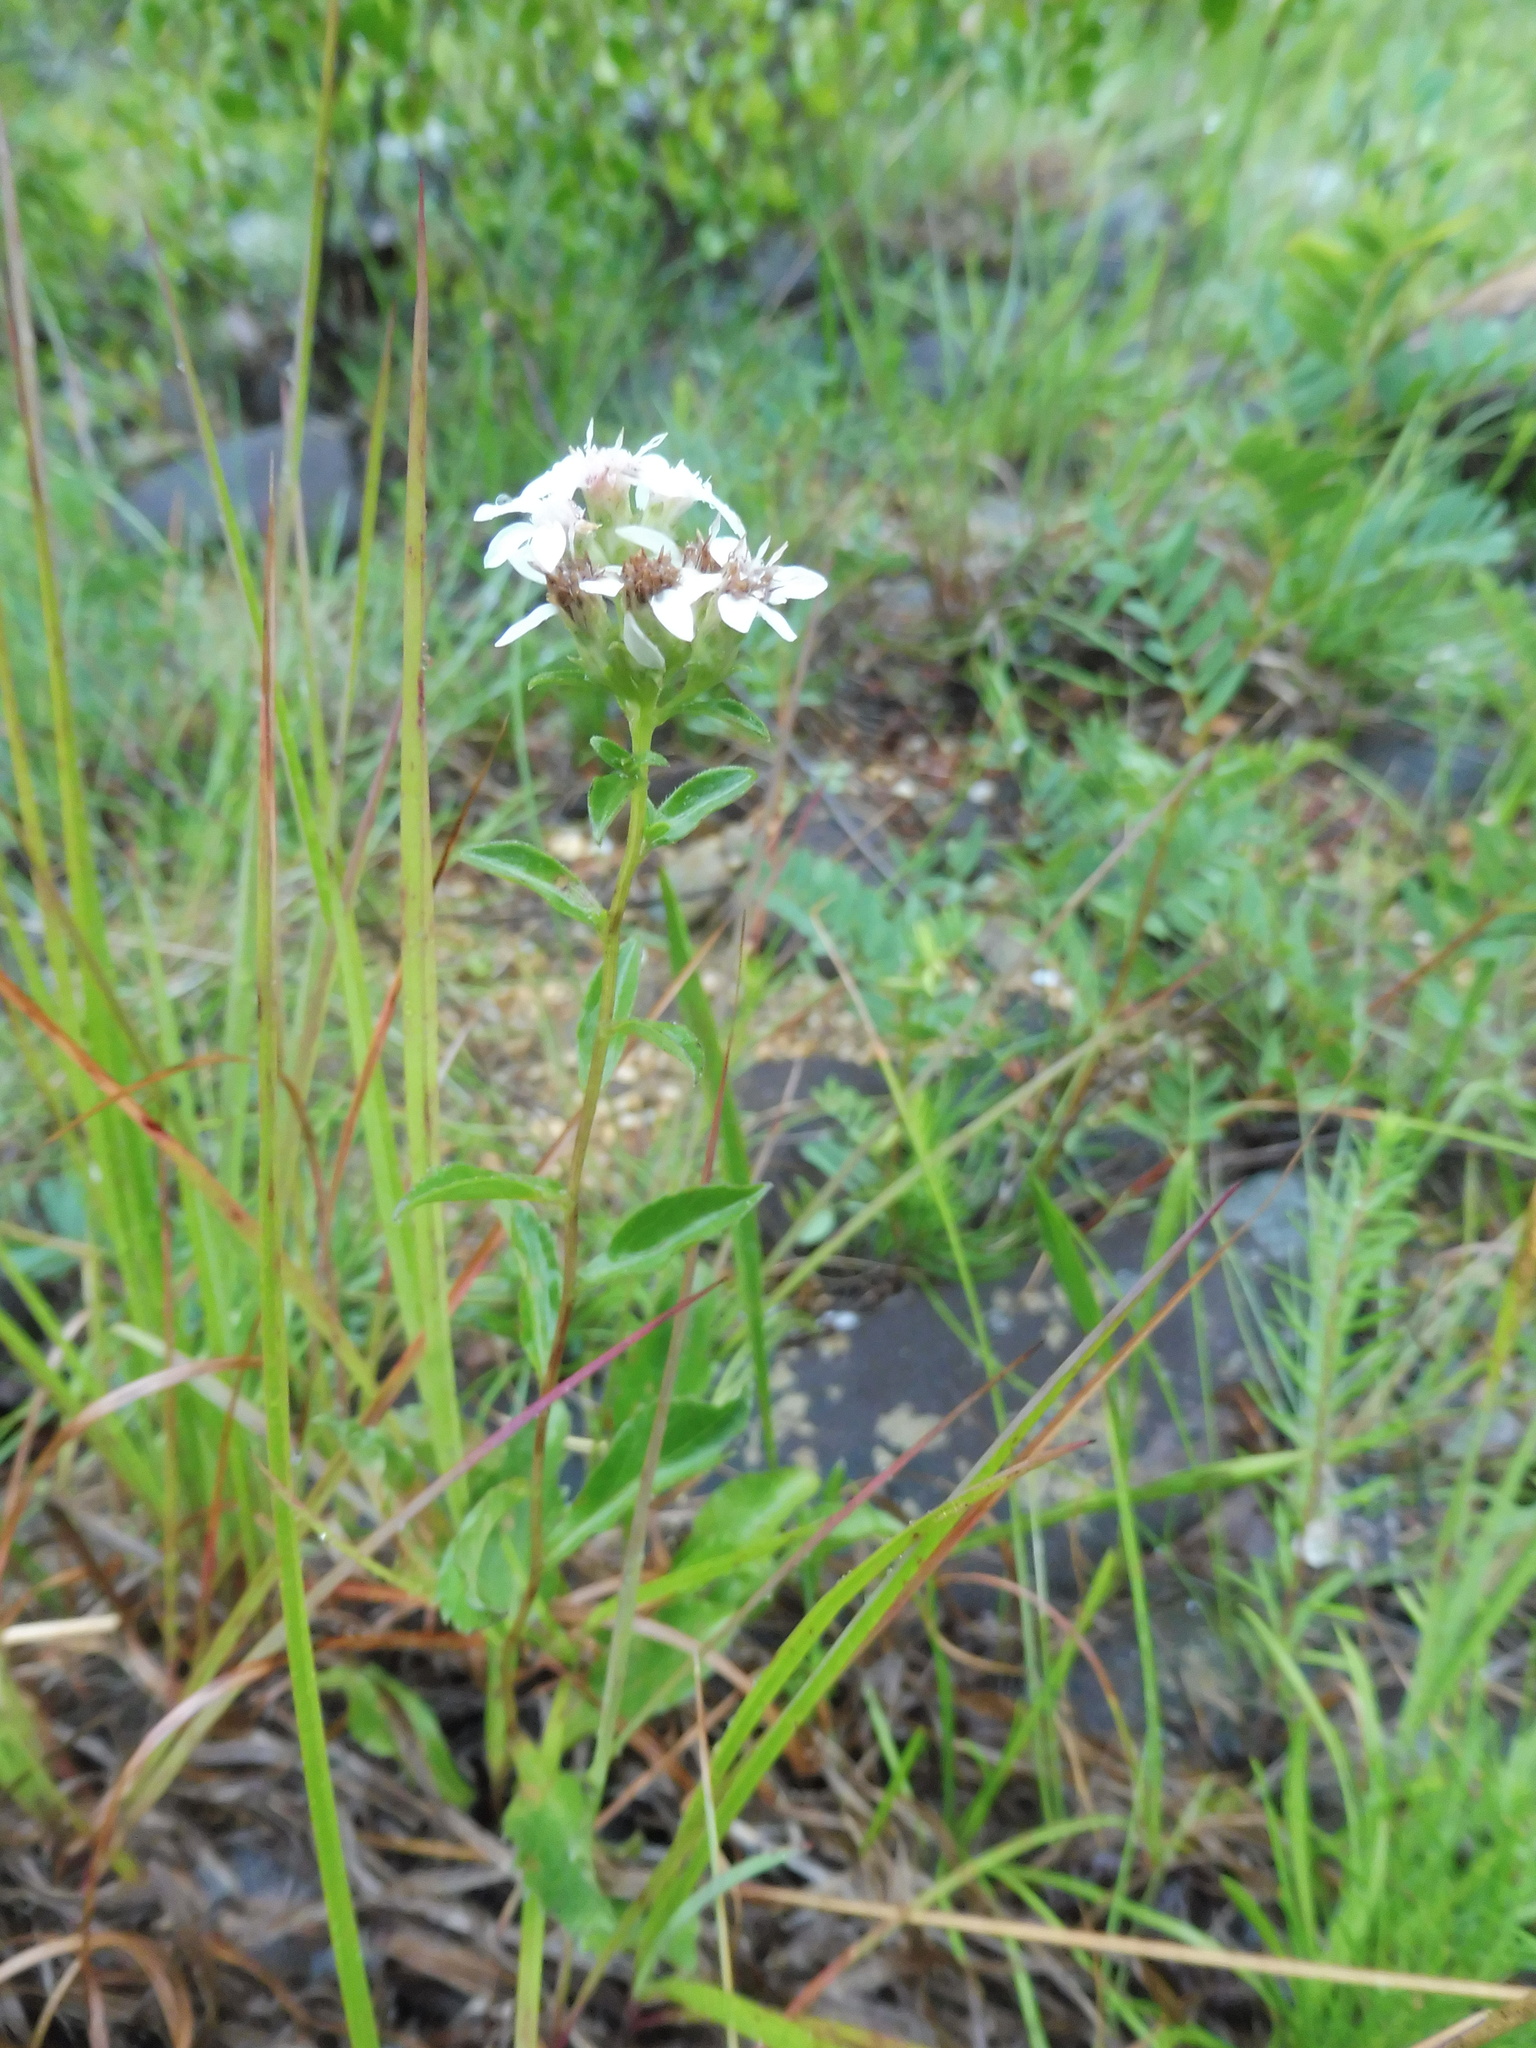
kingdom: Plantae
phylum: Tracheophyta
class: Magnoliopsida
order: Asterales
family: Asteraceae
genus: Sericocarpus
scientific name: Sericocarpus asteroides
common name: Toothed white-top aster
